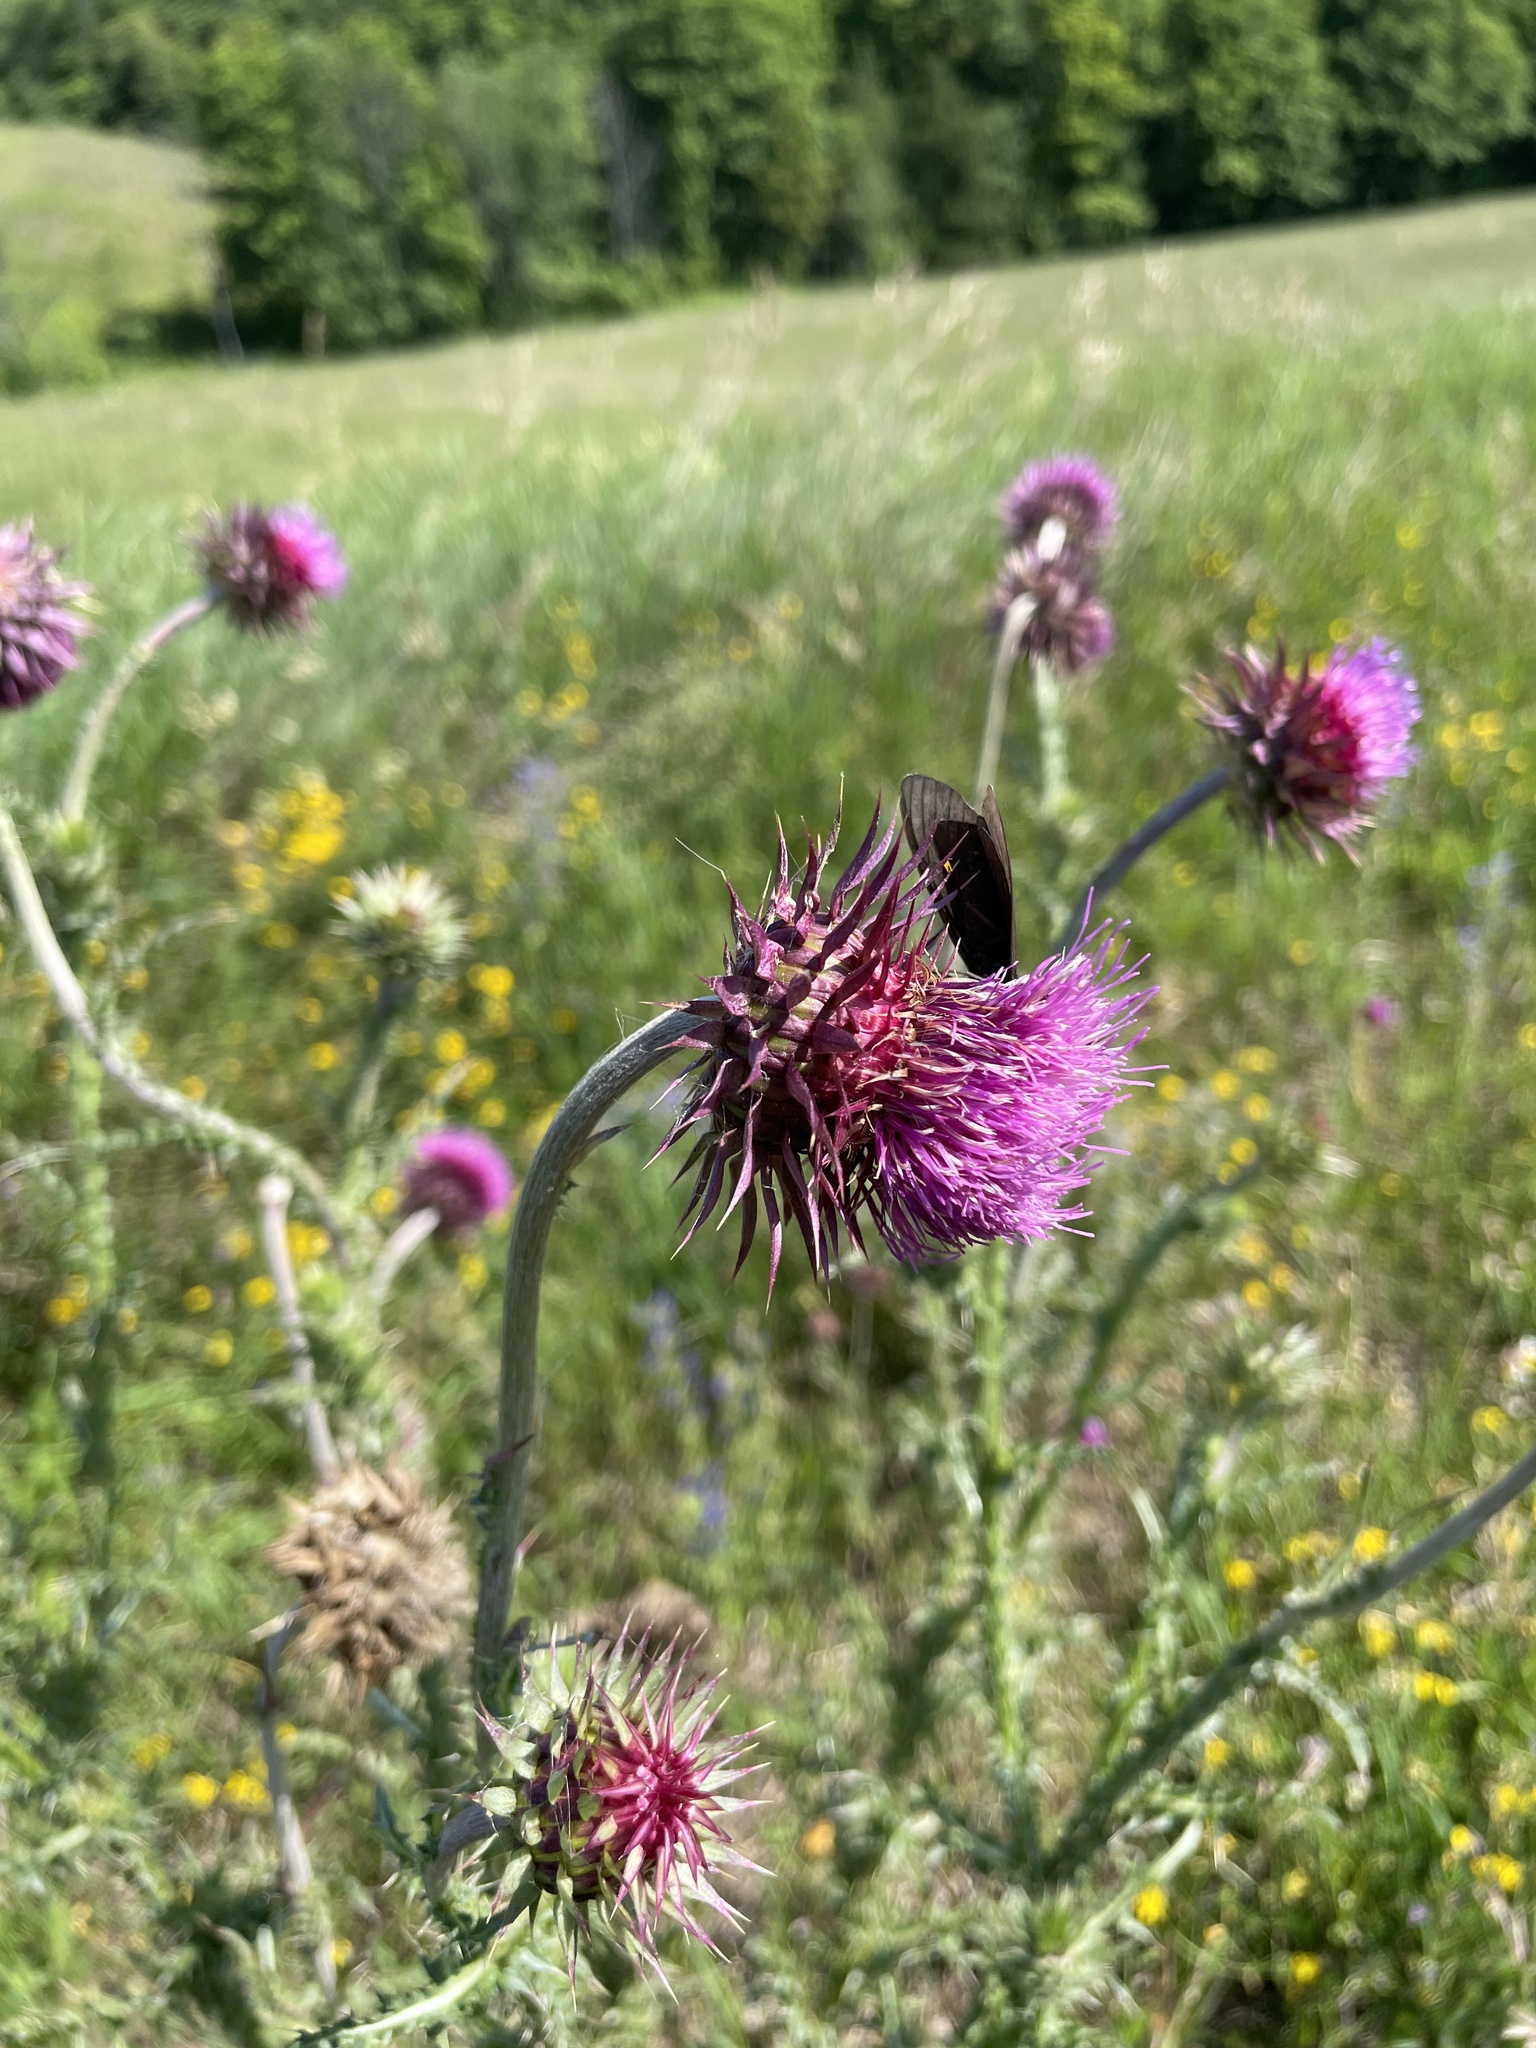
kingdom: Plantae
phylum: Tracheophyta
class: Magnoliopsida
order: Asterales
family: Asteraceae
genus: Carduus
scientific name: Carduus nutans
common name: Musk thistle
